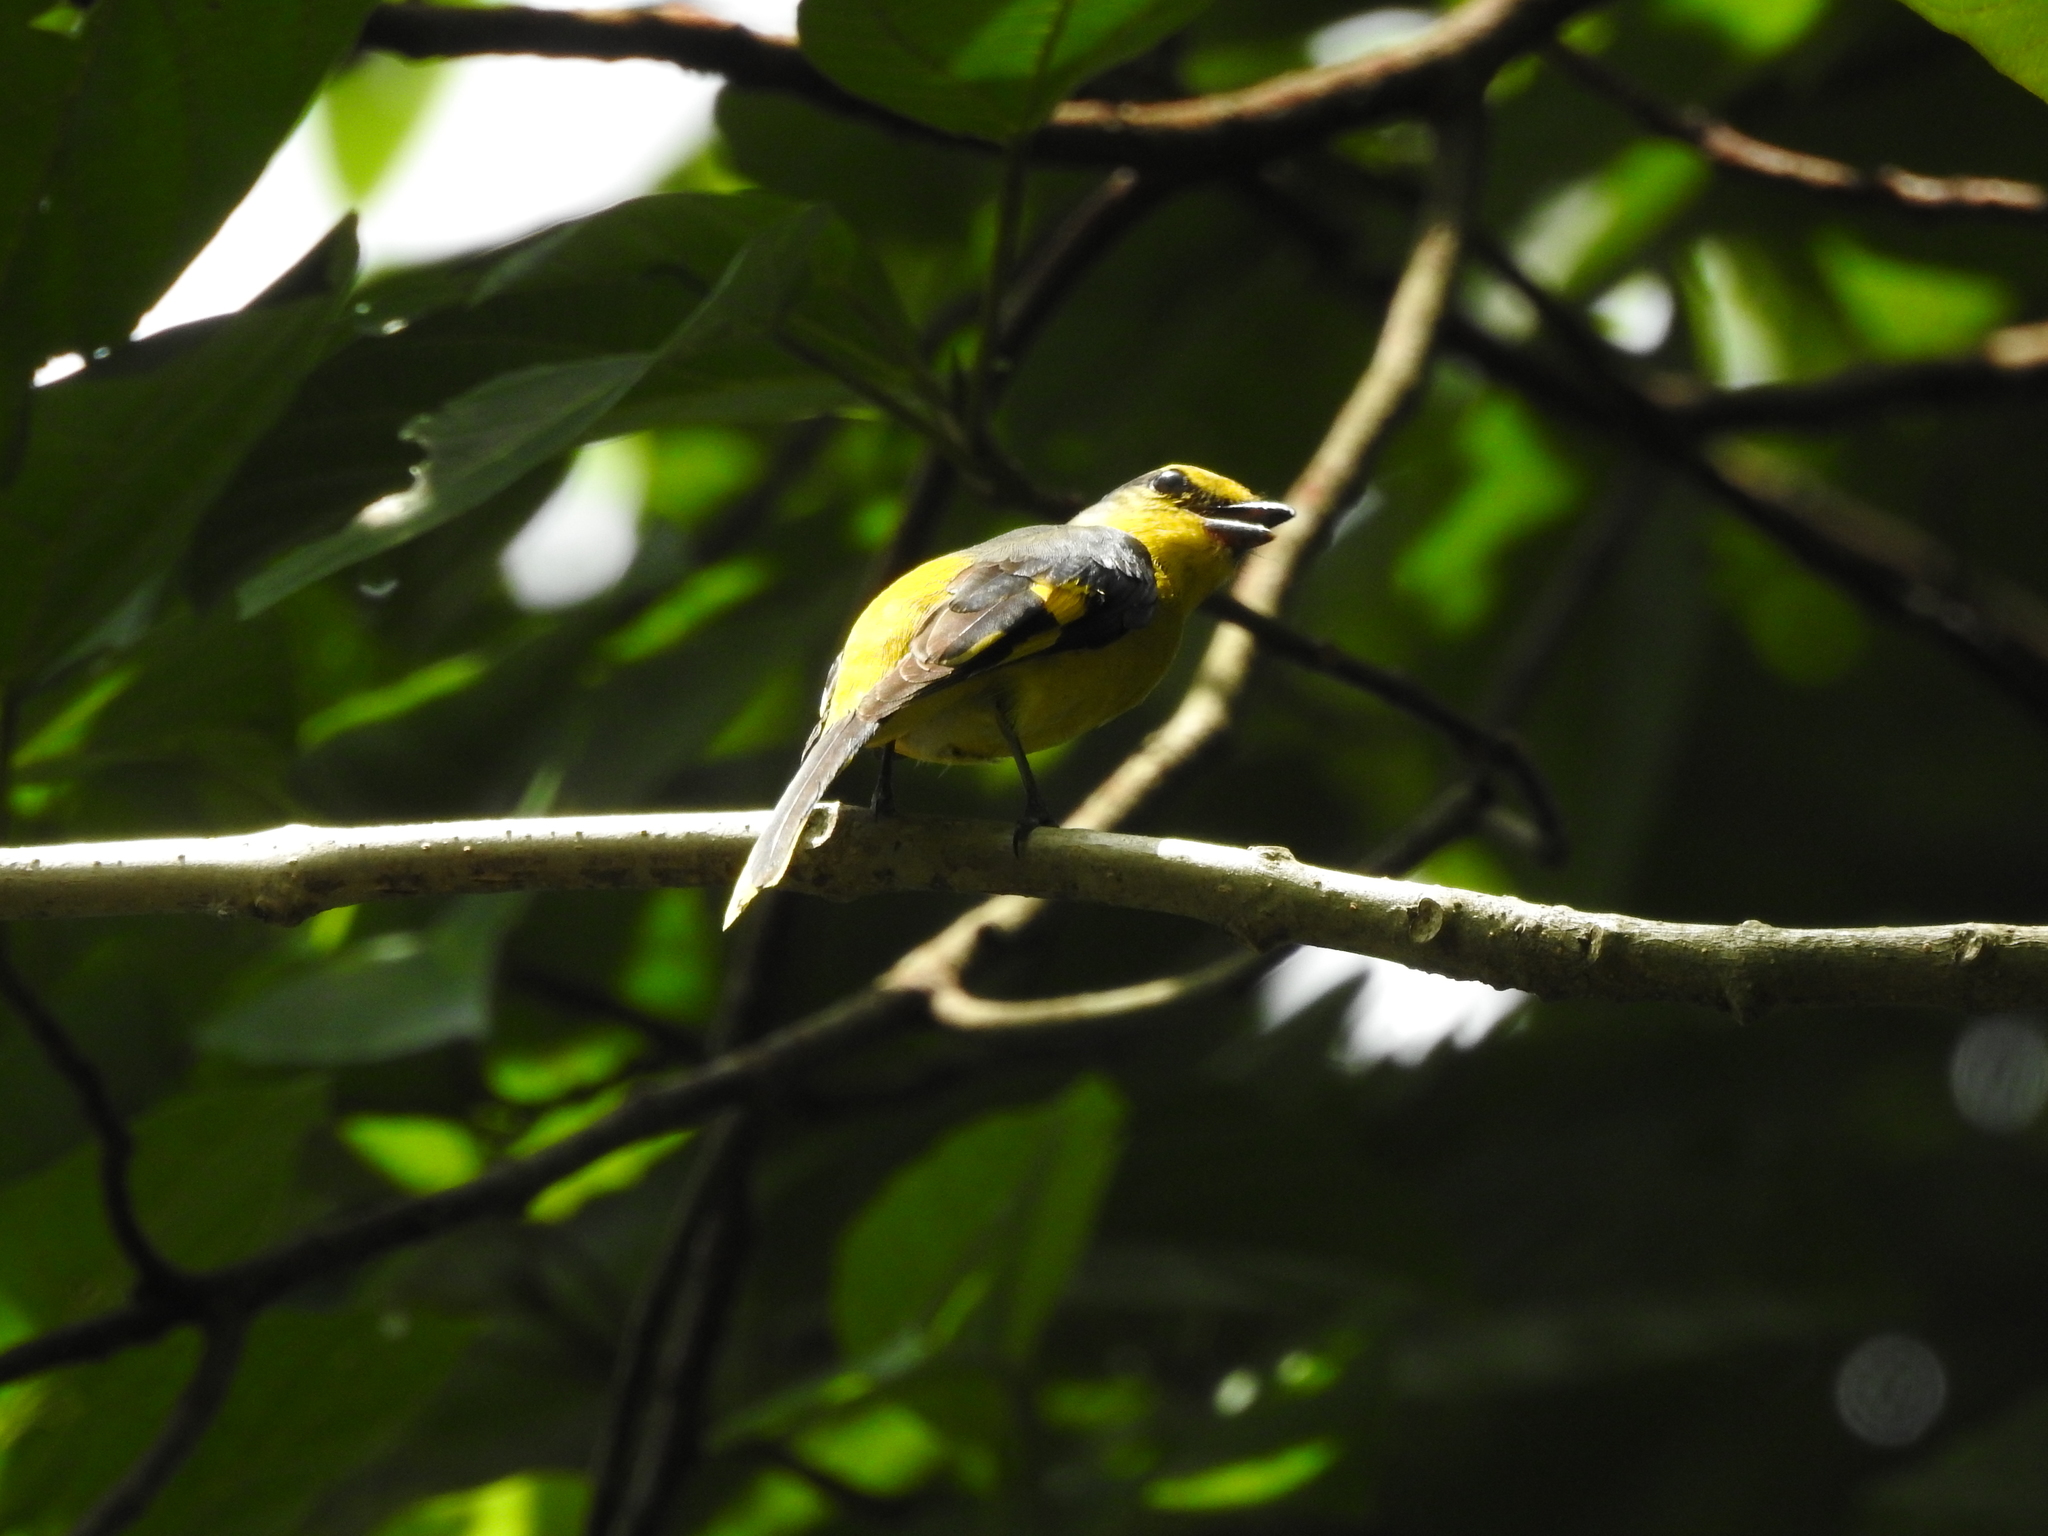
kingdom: Animalia
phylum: Chordata
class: Aves
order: Passeriformes
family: Campephagidae
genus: Pericrocotus
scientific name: Pericrocotus speciosus
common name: Scarlet minivet
